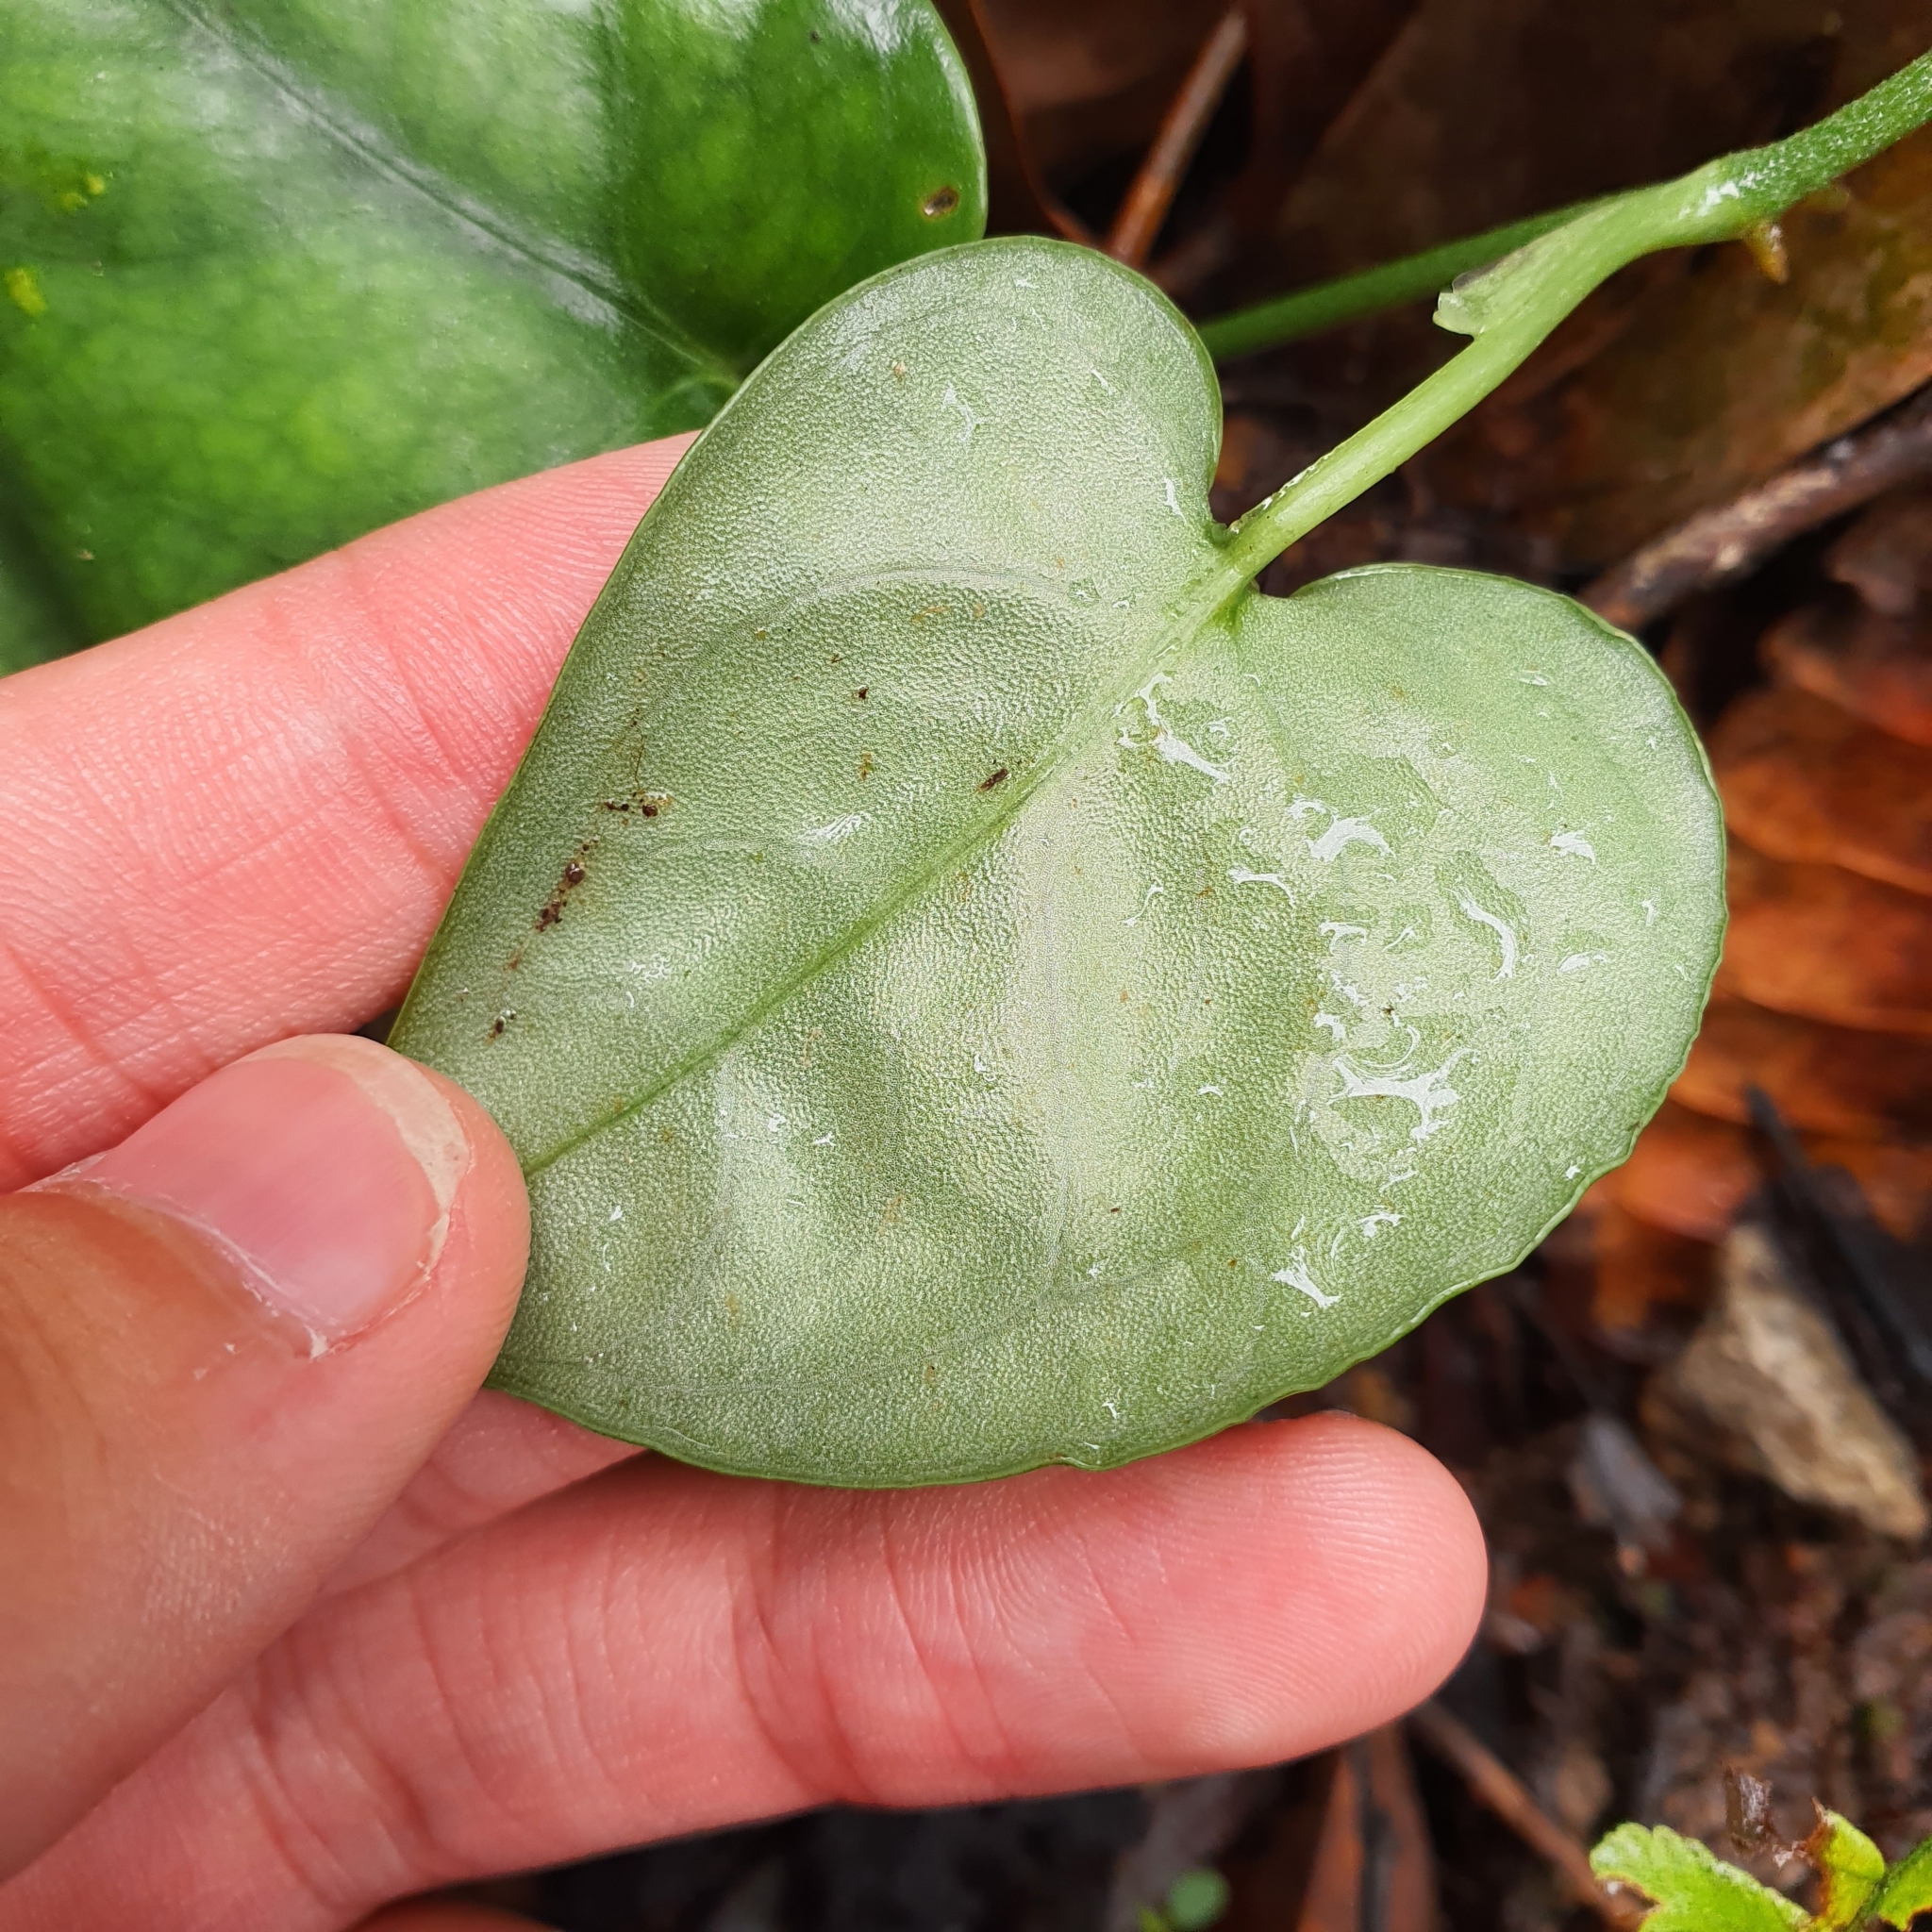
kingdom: Plantae
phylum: Tracheophyta
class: Liliopsida
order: Alismatales
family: Araceae
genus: Scindapsus
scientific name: Scindapsus lucens
